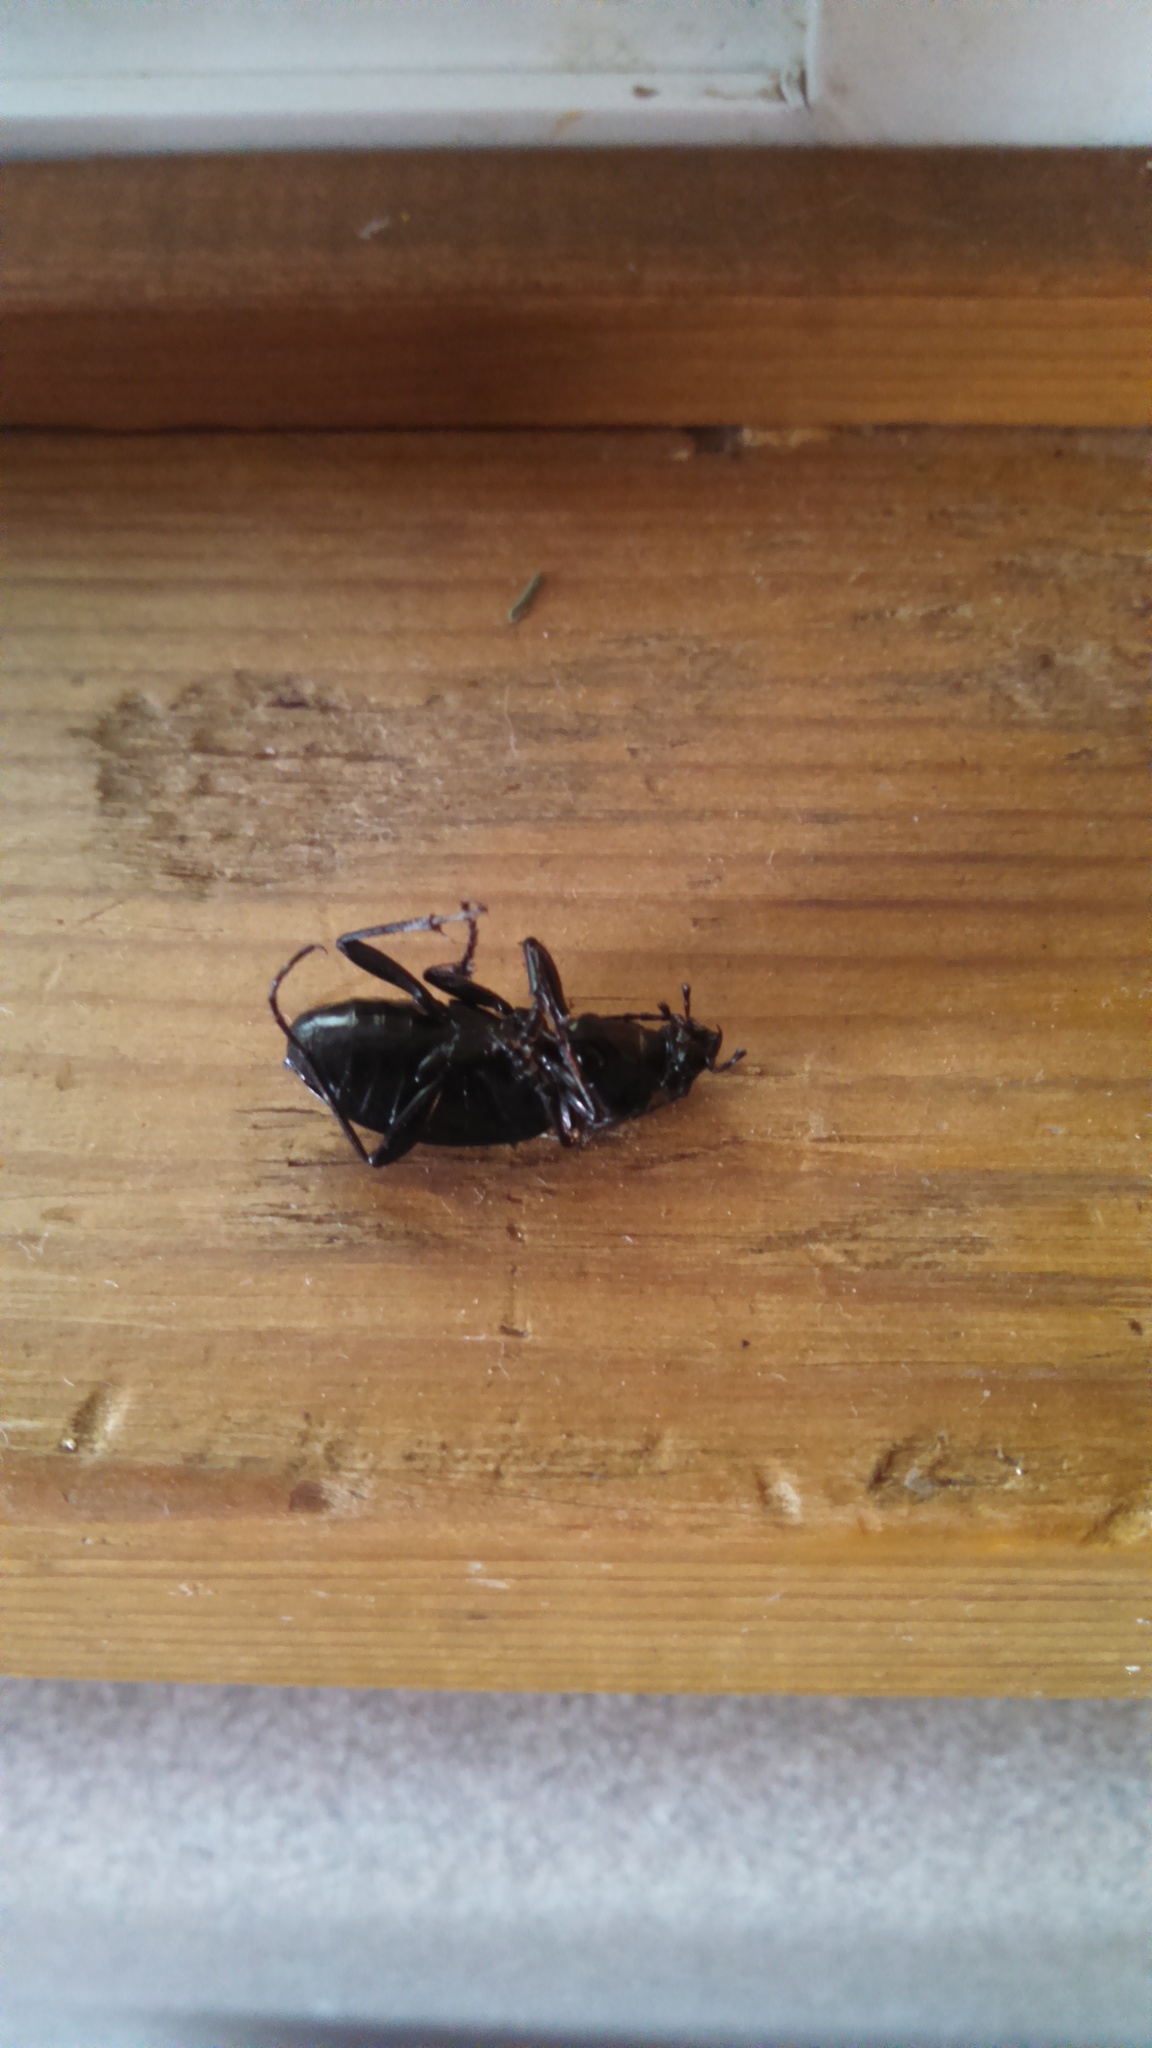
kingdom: Animalia
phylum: Arthropoda
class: Insecta
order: Coleoptera
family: Carabidae
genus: Carabus
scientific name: Carabus nemoralis
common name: European ground beetle
